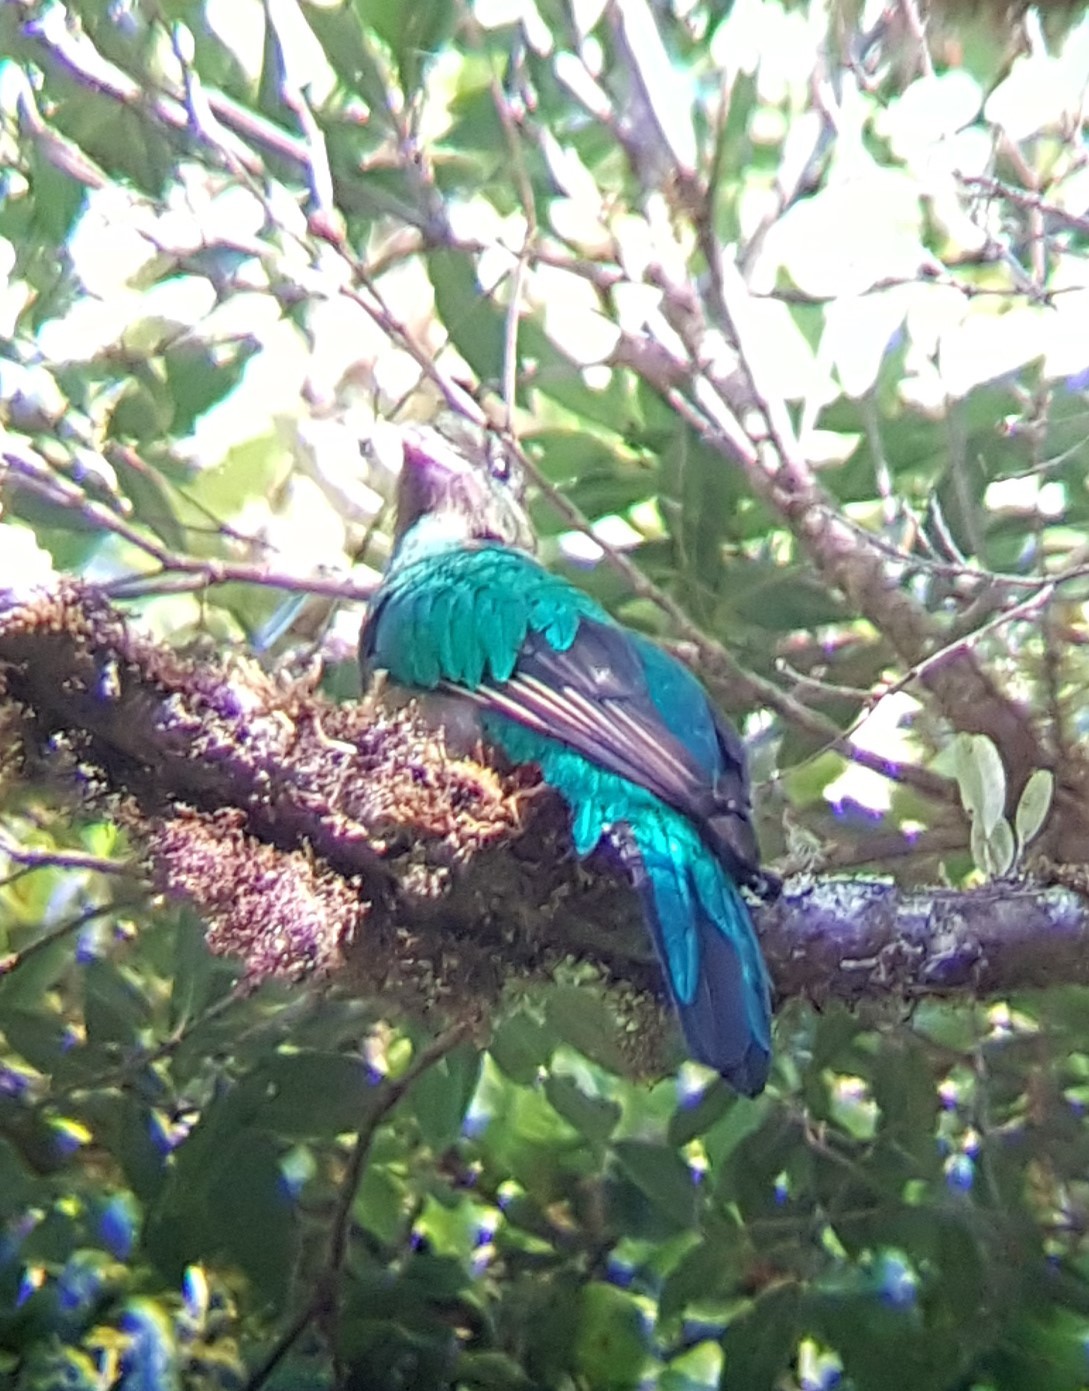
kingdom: Animalia
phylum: Chordata
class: Aves
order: Trogoniformes
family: Trogonidae
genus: Pharomachrus
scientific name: Pharomachrus mocinno
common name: Resplendent quetzal
